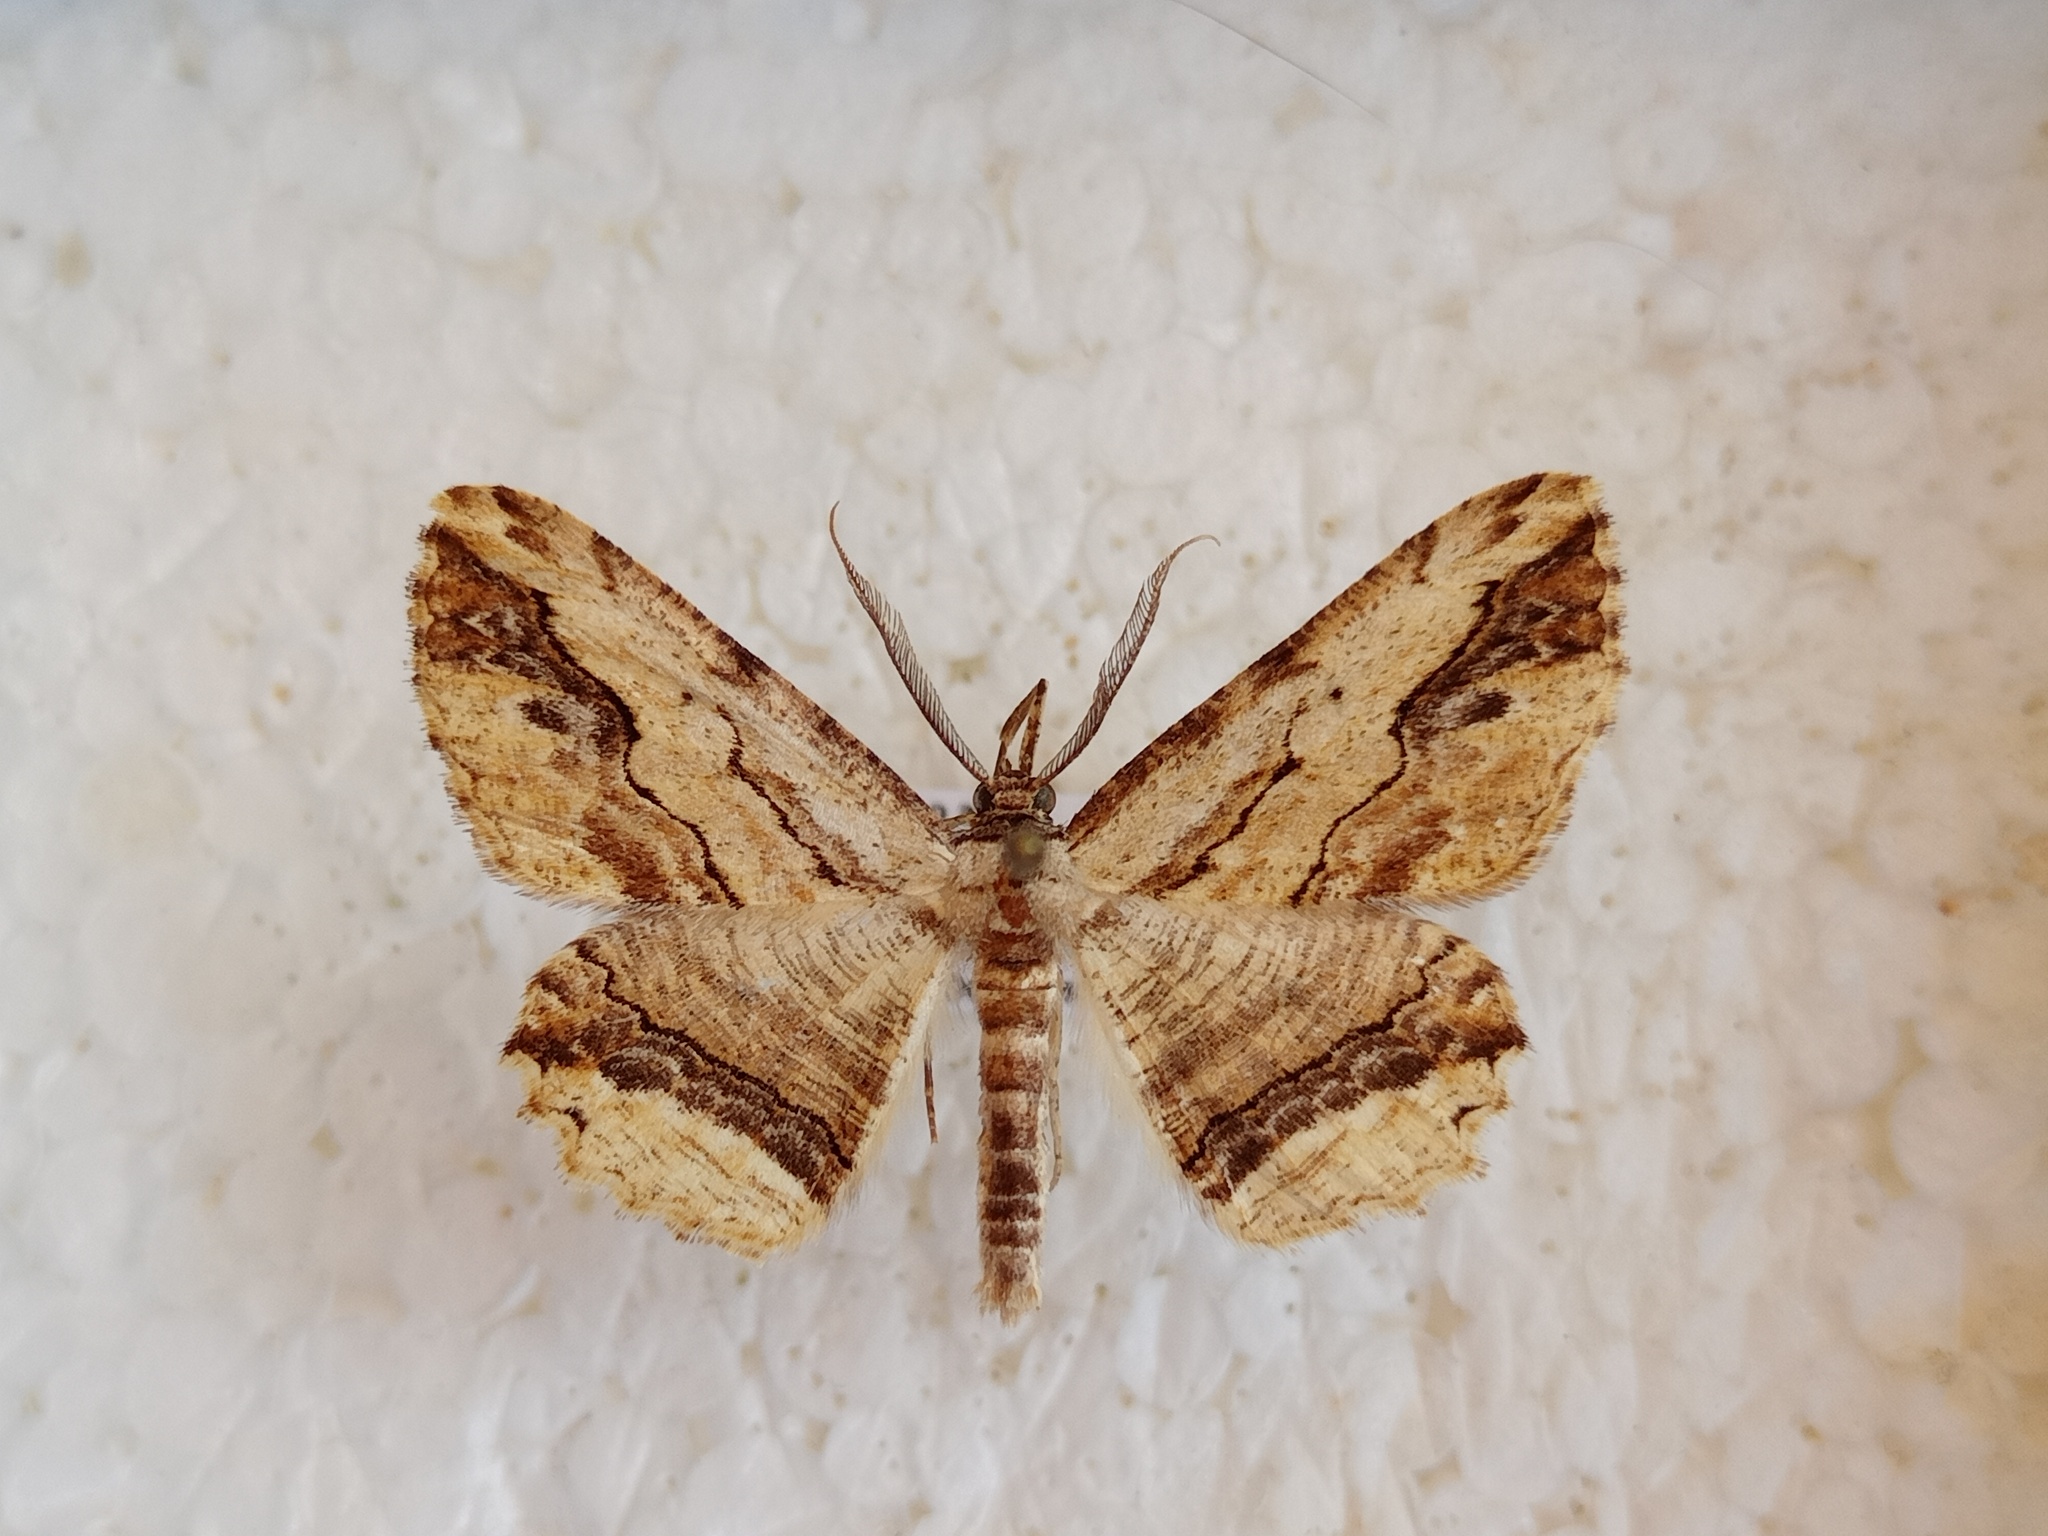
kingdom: Animalia
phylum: Arthropoda
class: Insecta
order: Lepidoptera
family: Geometridae
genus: Menophra
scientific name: Menophra abruptaria
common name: Waved umber
